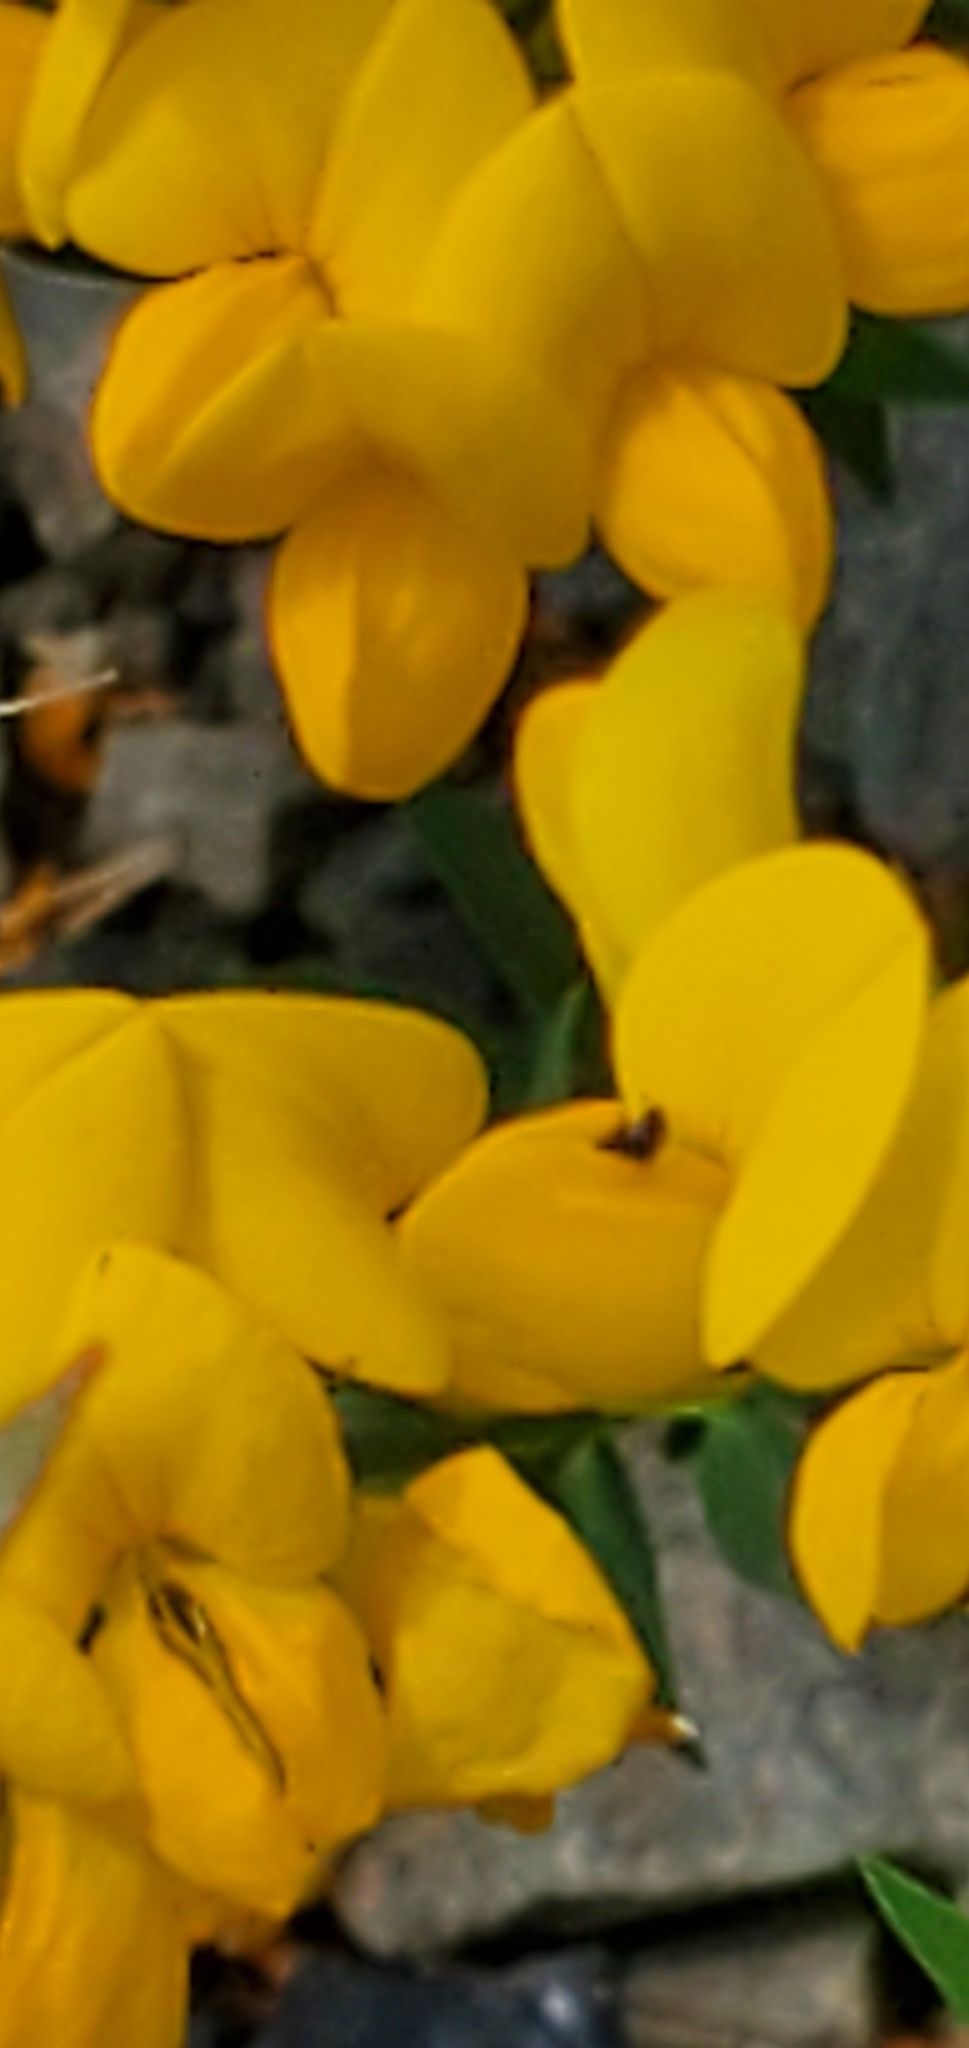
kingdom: Plantae
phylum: Tracheophyta
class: Magnoliopsida
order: Fabales
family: Fabaceae
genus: Lotus
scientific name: Lotus corniculatus
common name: Common bird's-foot-trefoil
